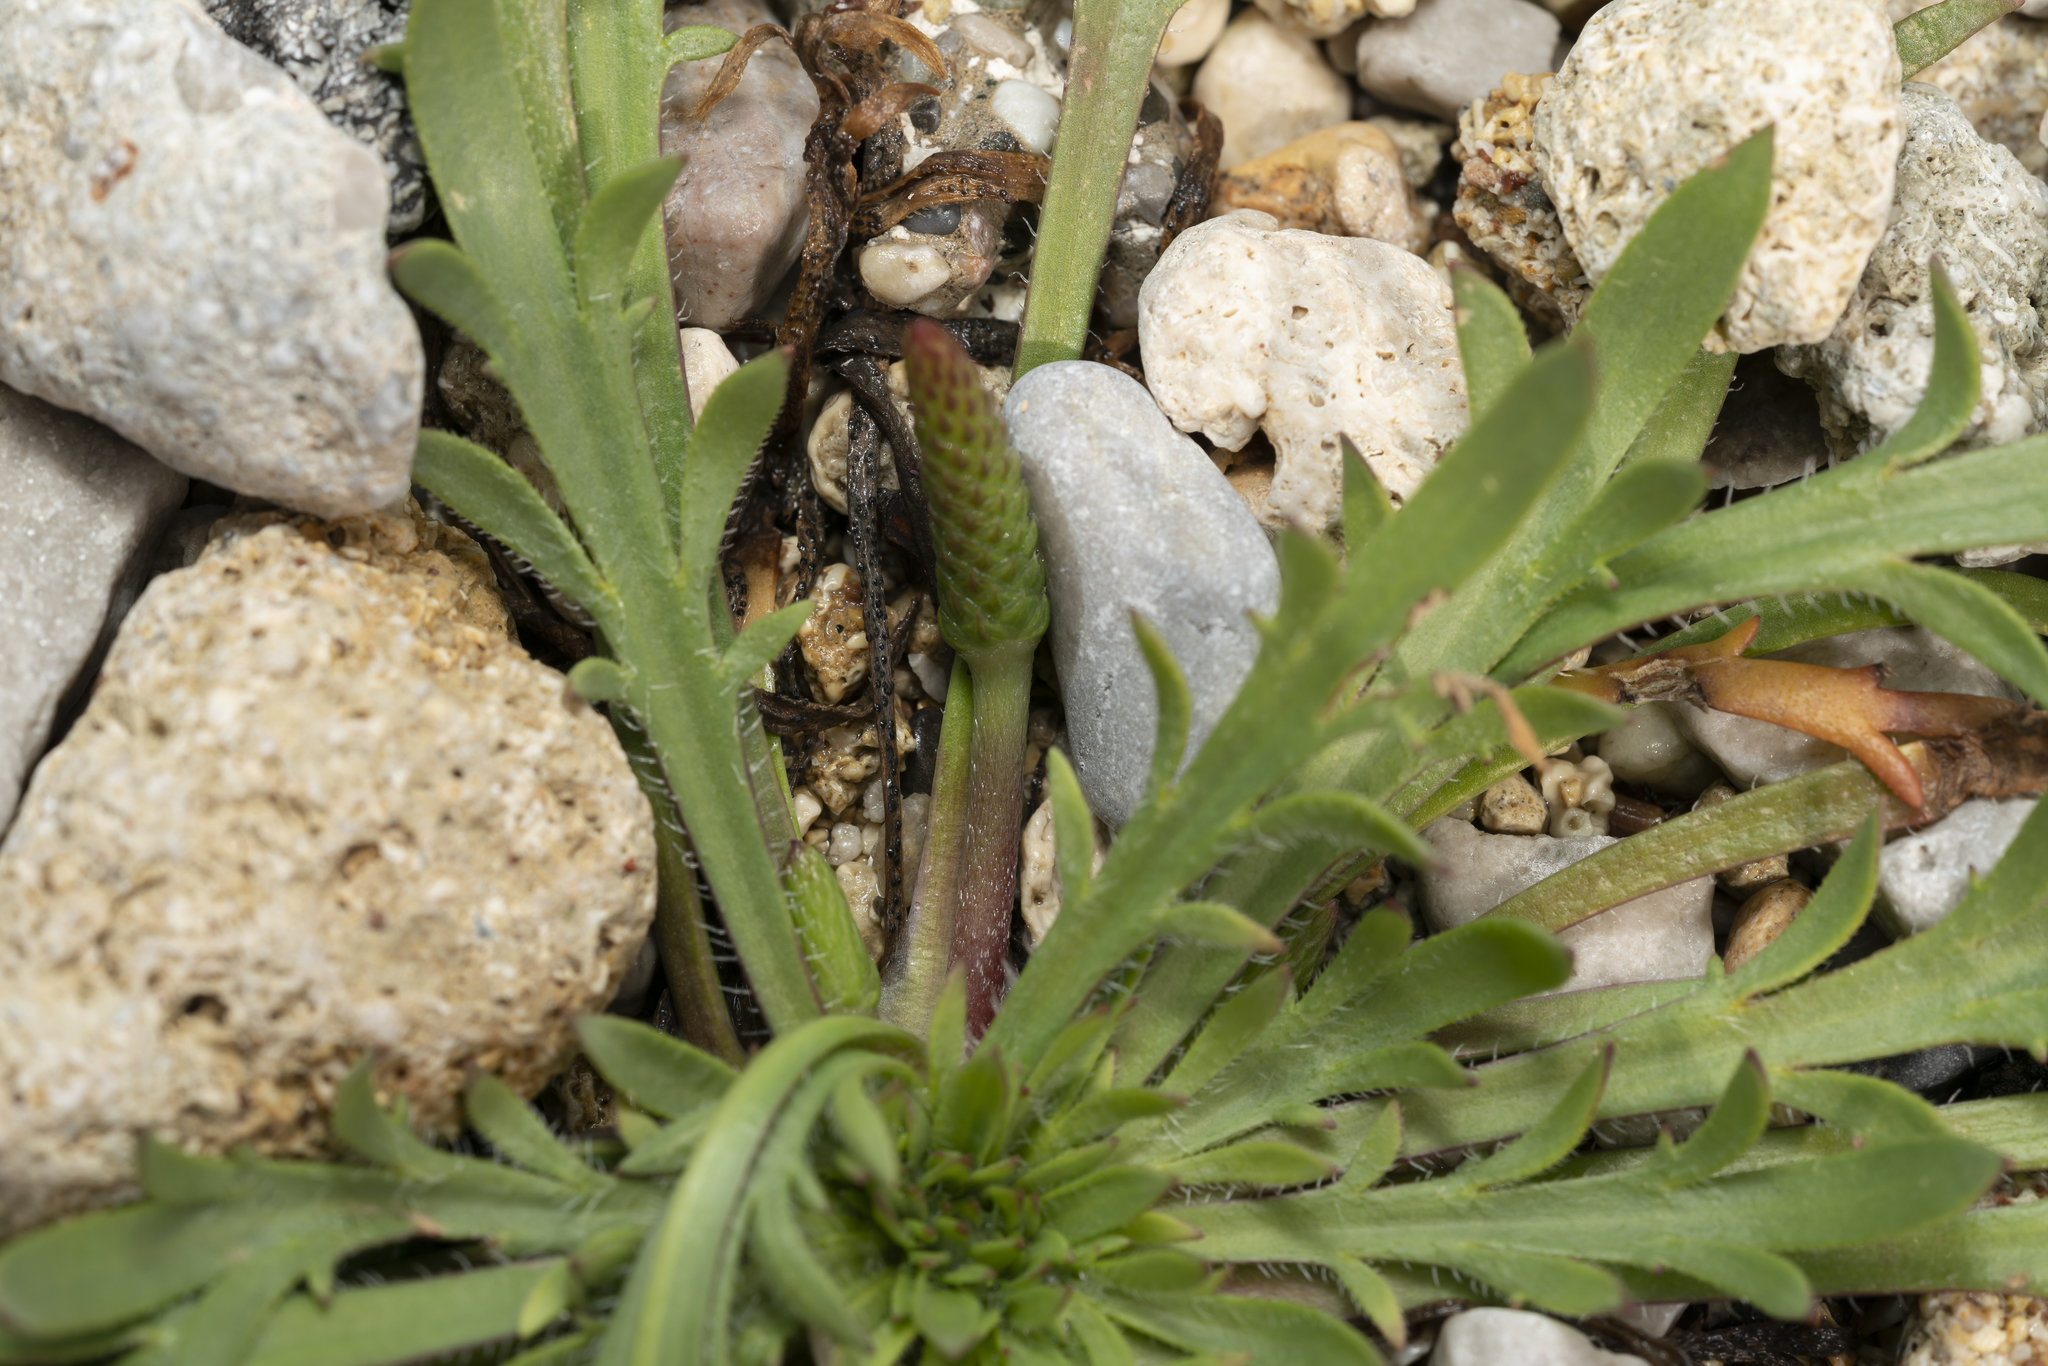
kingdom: Plantae
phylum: Tracheophyta
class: Magnoliopsida
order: Lamiales
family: Plantaginaceae
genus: Plantago
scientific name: Plantago weldenii
